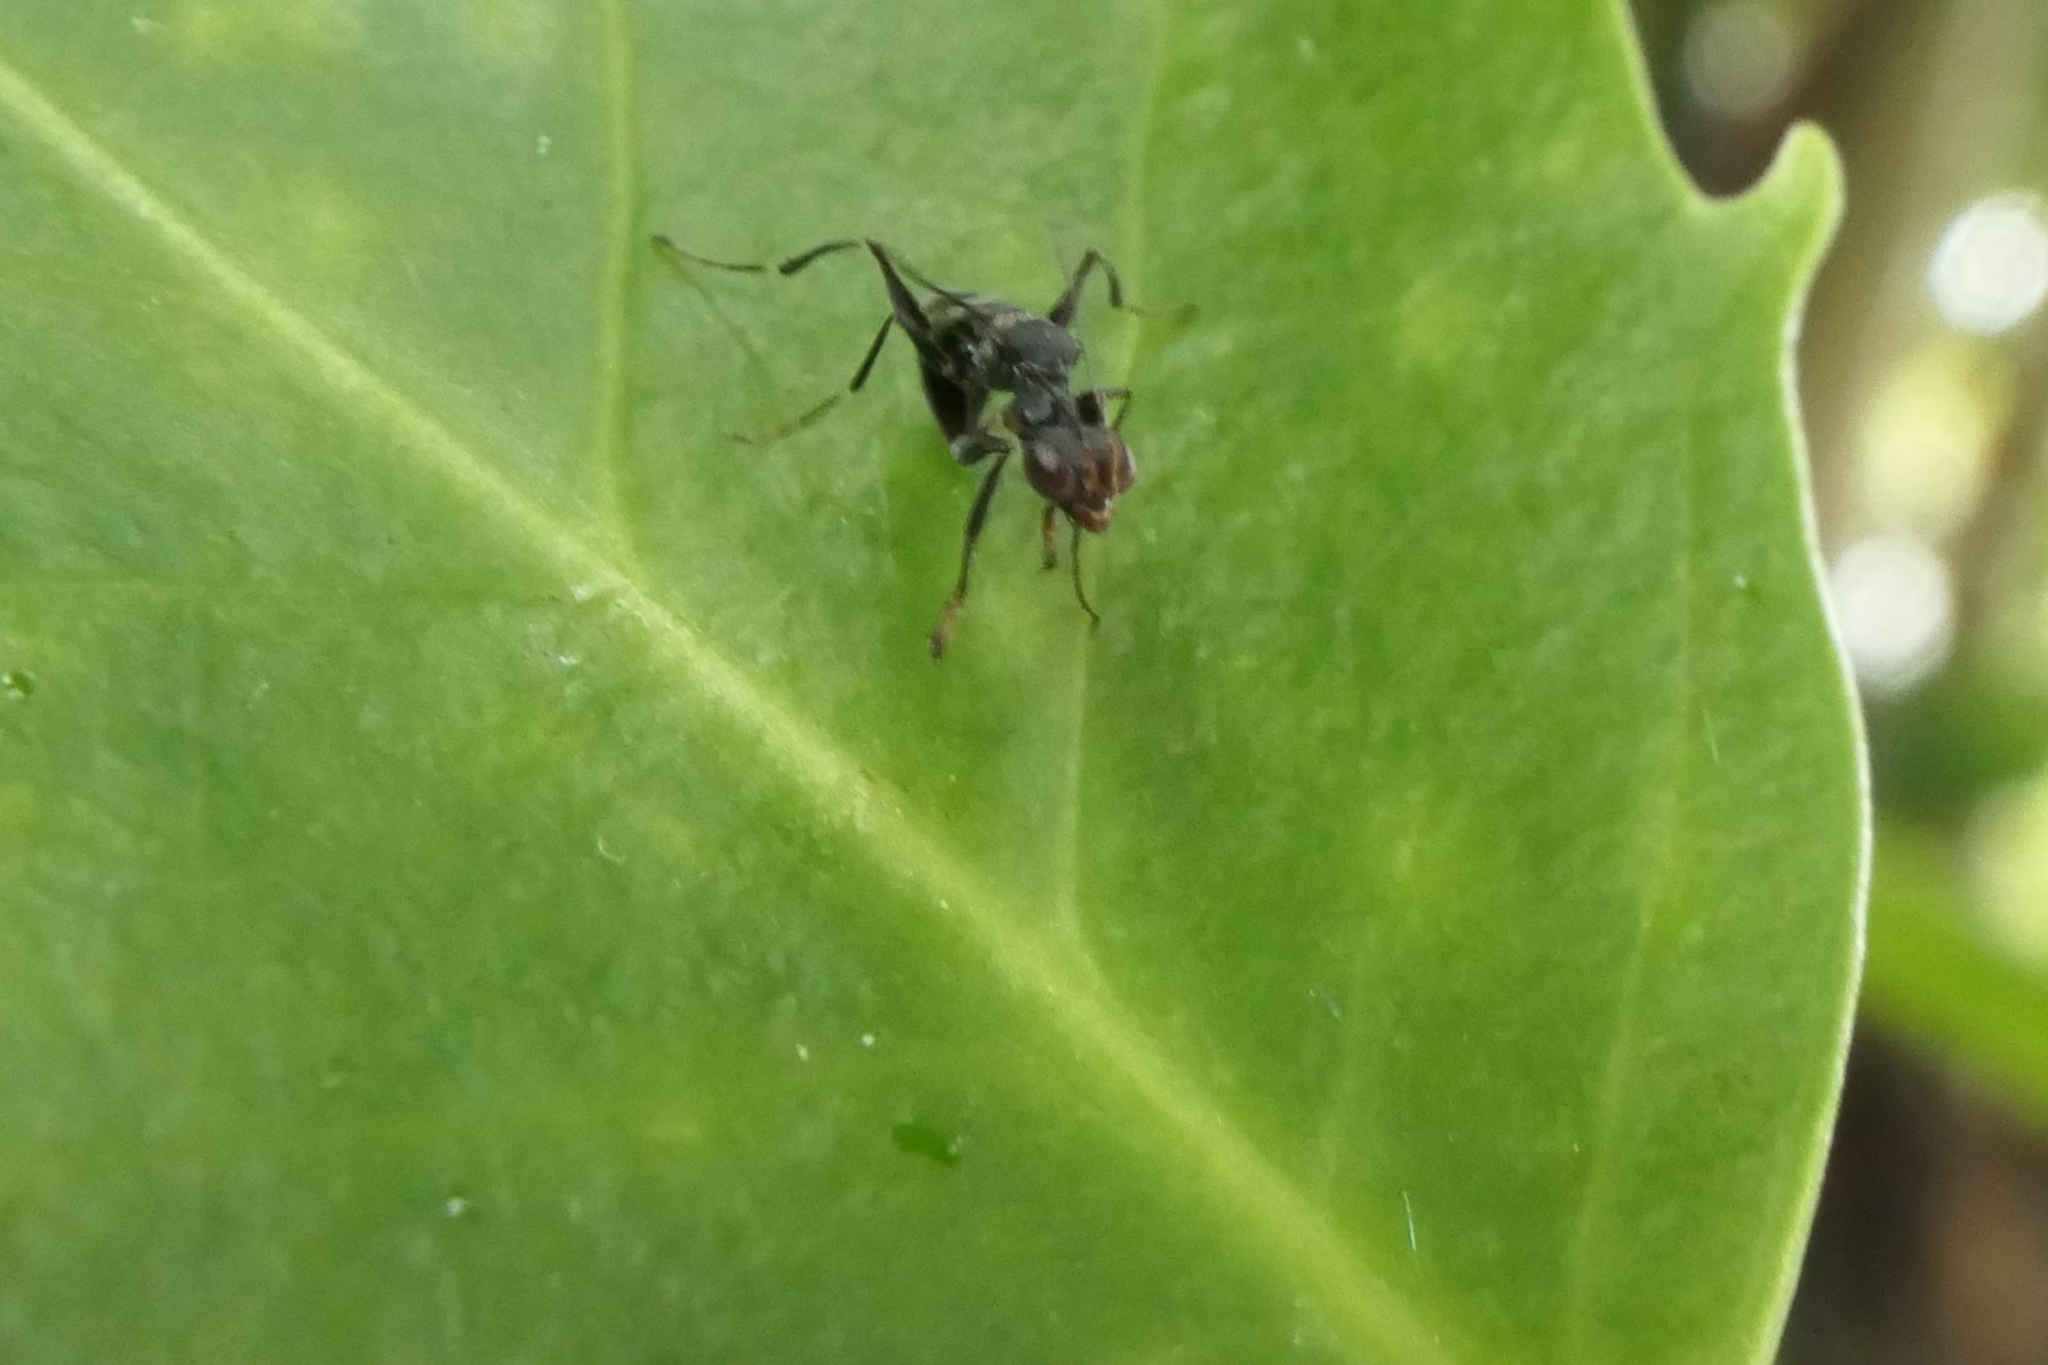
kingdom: Animalia
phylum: Arthropoda
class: Insecta
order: Hymenoptera
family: Dryinidae
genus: Dryinus
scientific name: Dryinus koebelei
